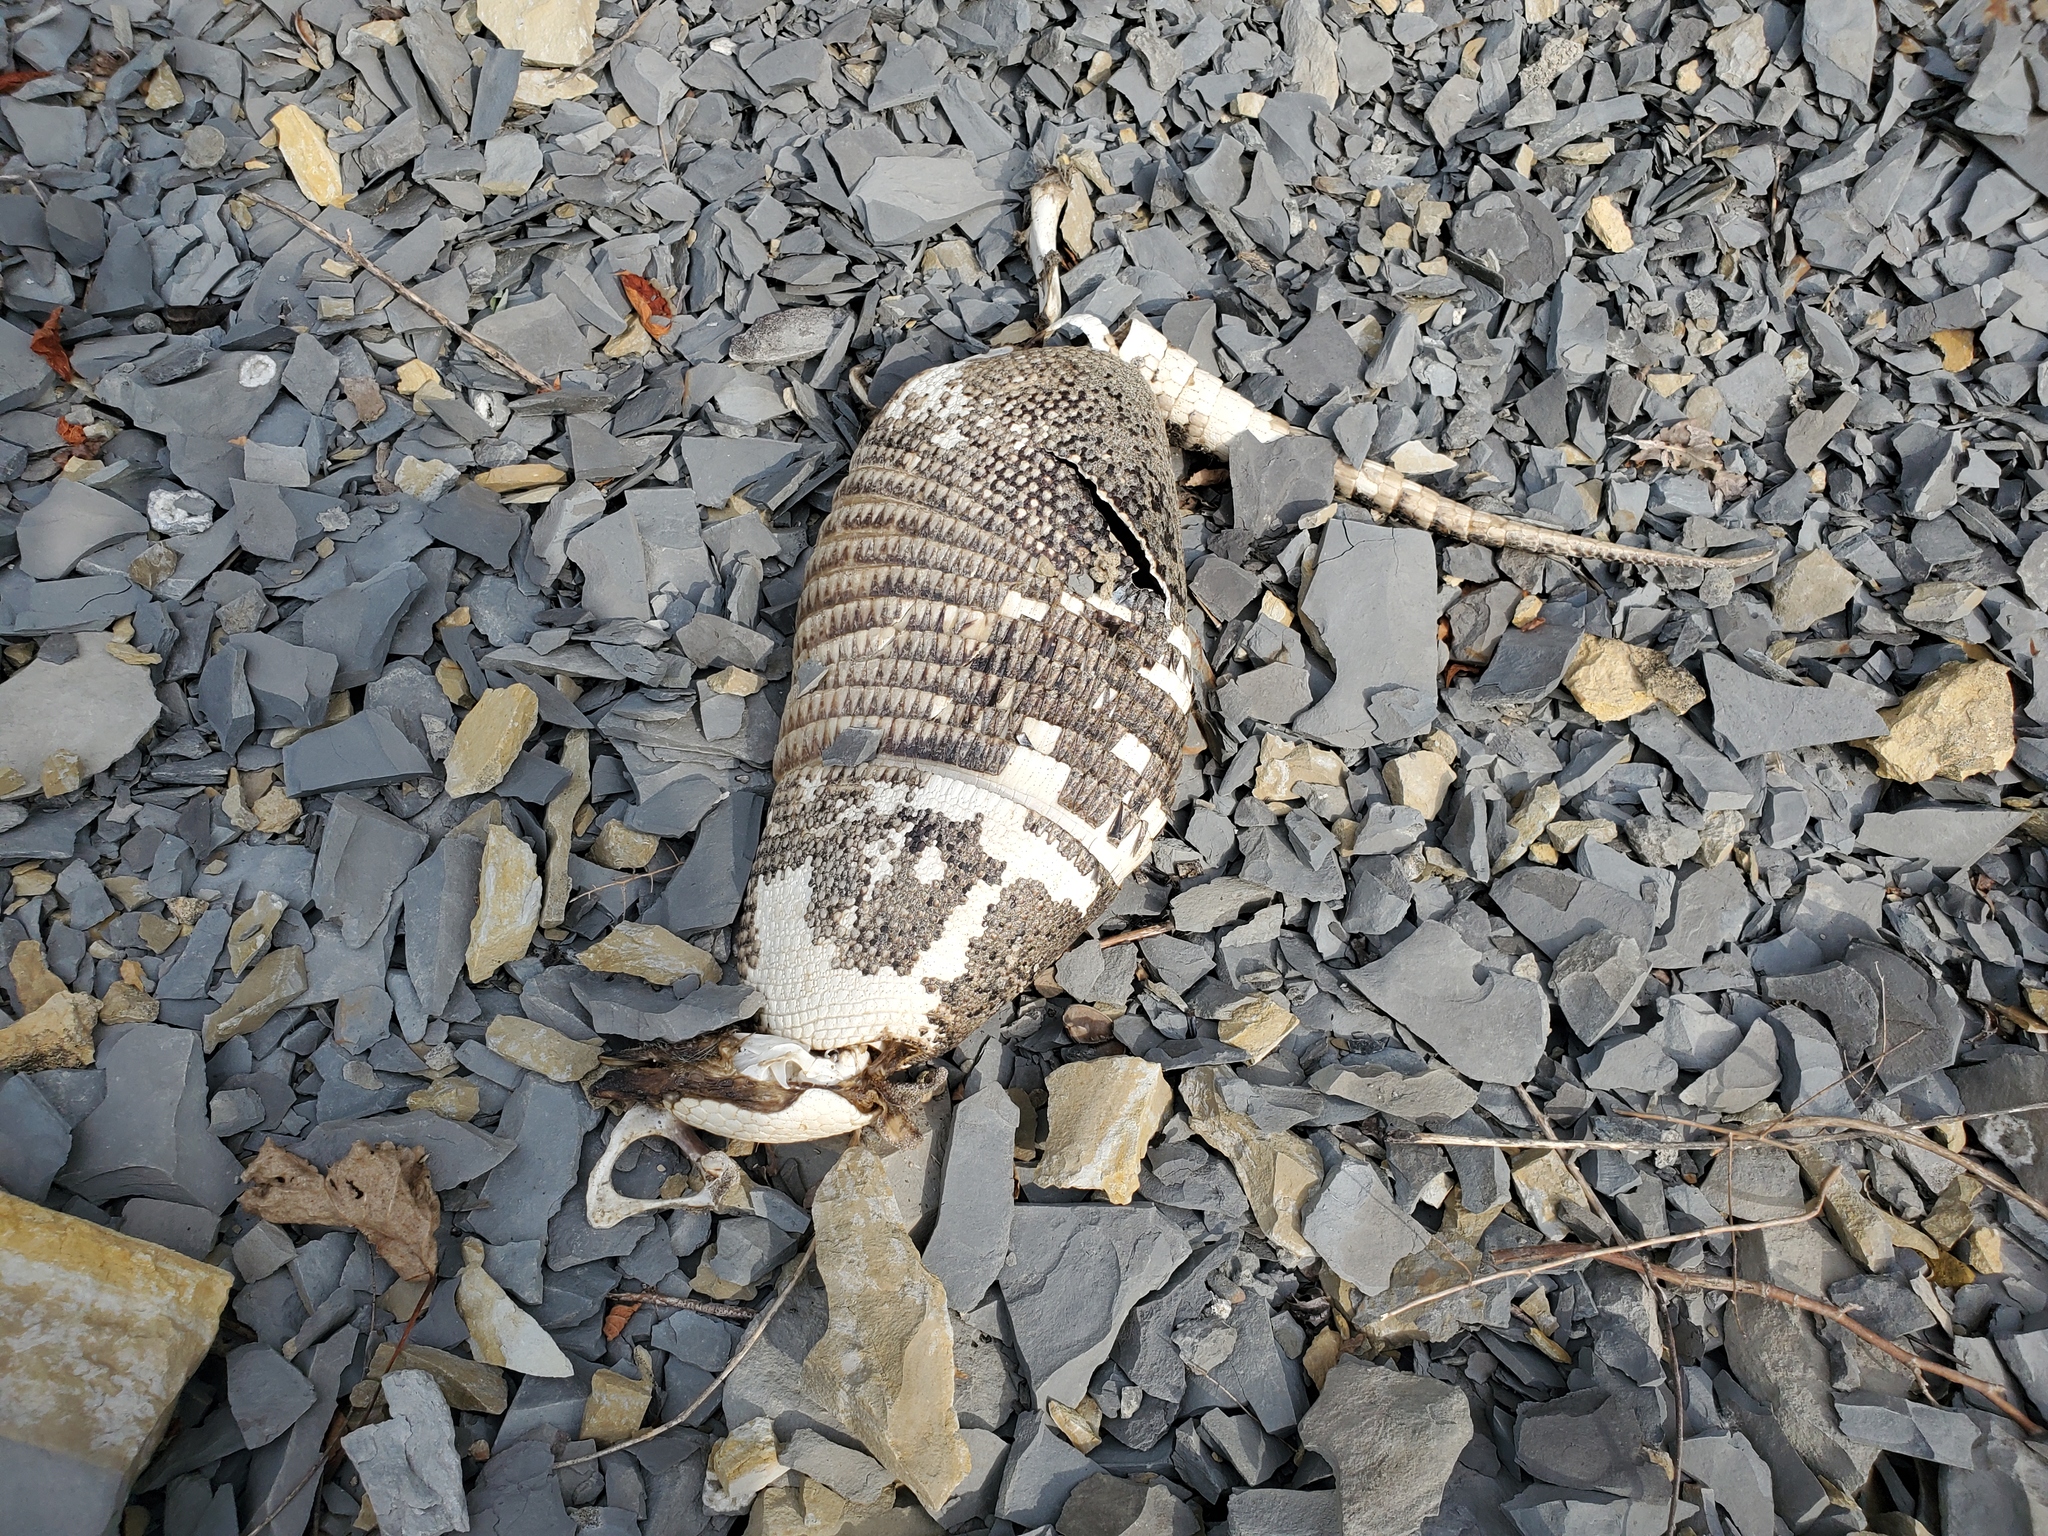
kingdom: Animalia
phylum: Chordata
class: Mammalia
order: Cingulata
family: Dasypodidae
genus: Dasypus
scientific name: Dasypus novemcinctus
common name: Nine-banded armadillo
